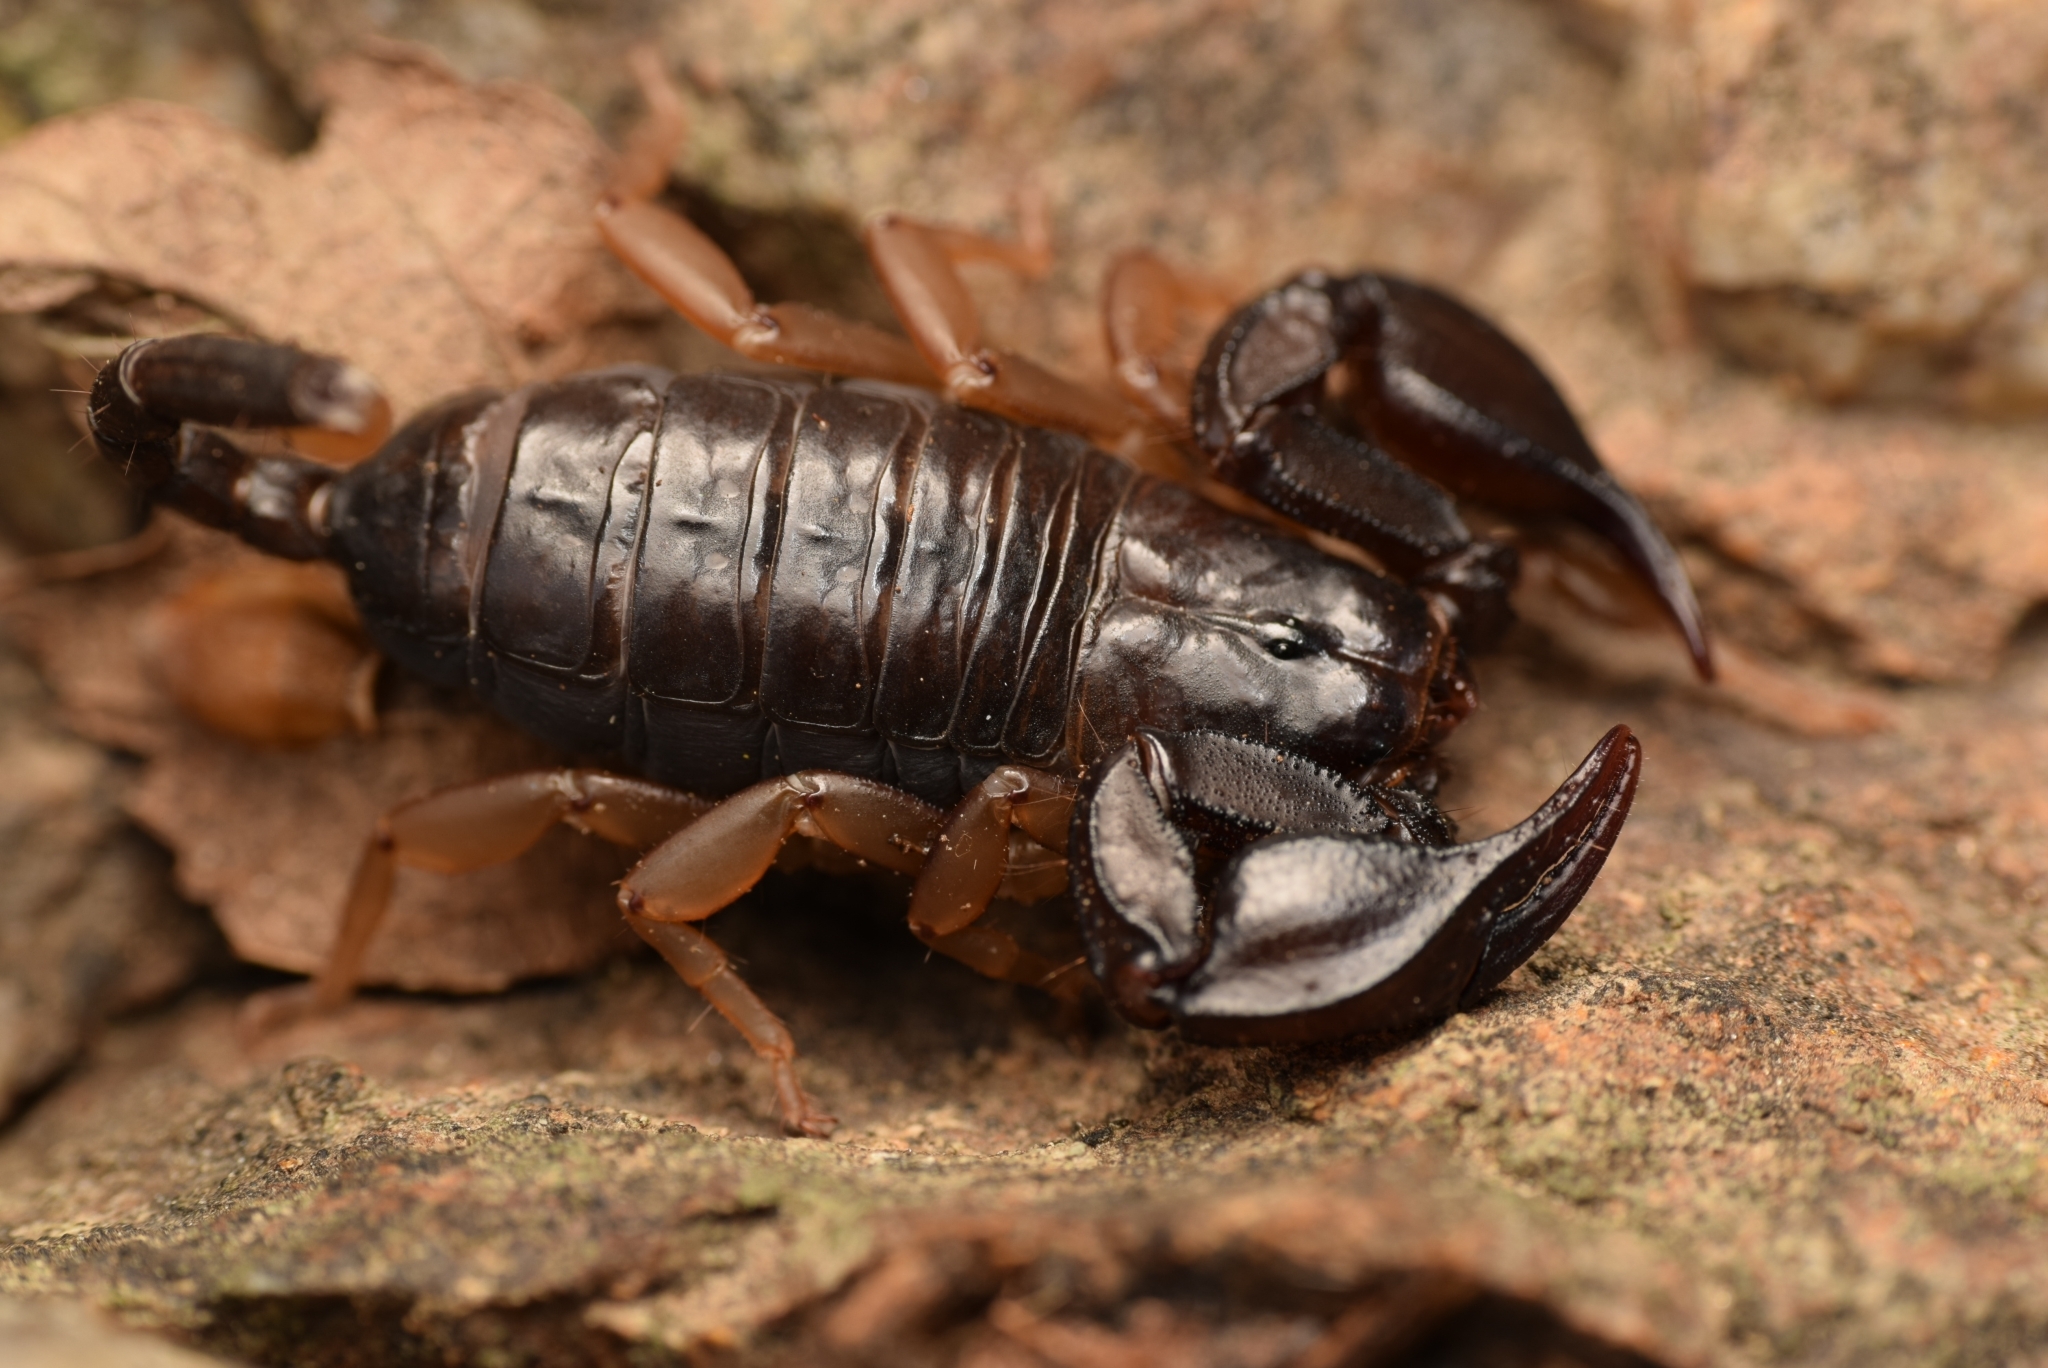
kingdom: Animalia
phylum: Arthropoda
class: Arachnida
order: Scorpiones
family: Euscorpiidae
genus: Euscorpius
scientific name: Euscorpius flavicaudis
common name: European yellow-tailed scorpion
